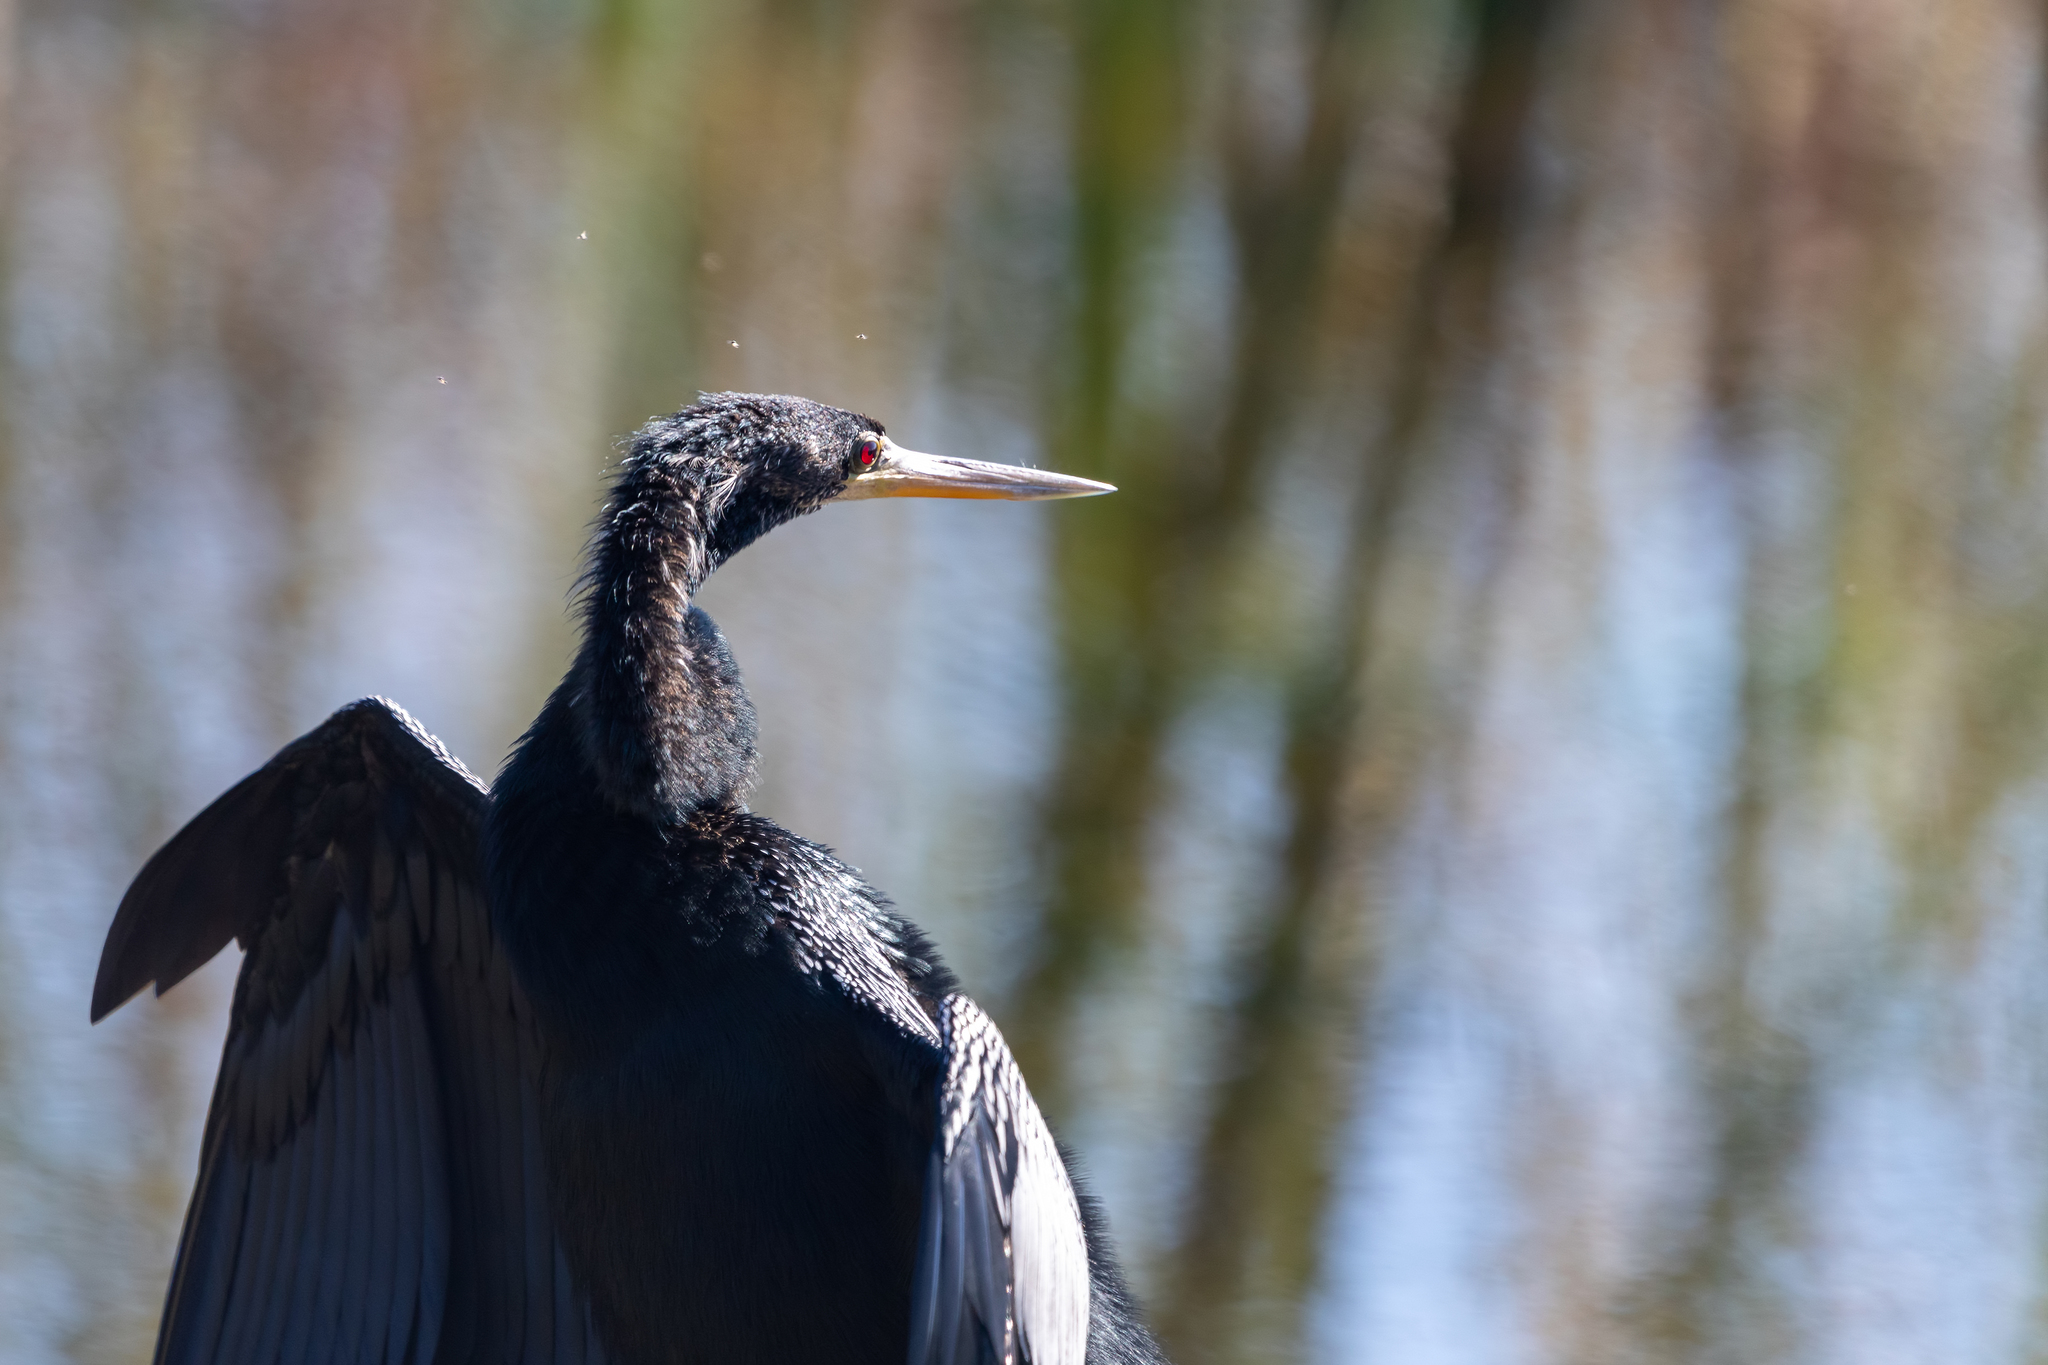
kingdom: Animalia
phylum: Chordata
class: Aves
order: Suliformes
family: Anhingidae
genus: Anhinga
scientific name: Anhinga anhinga
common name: Anhinga
